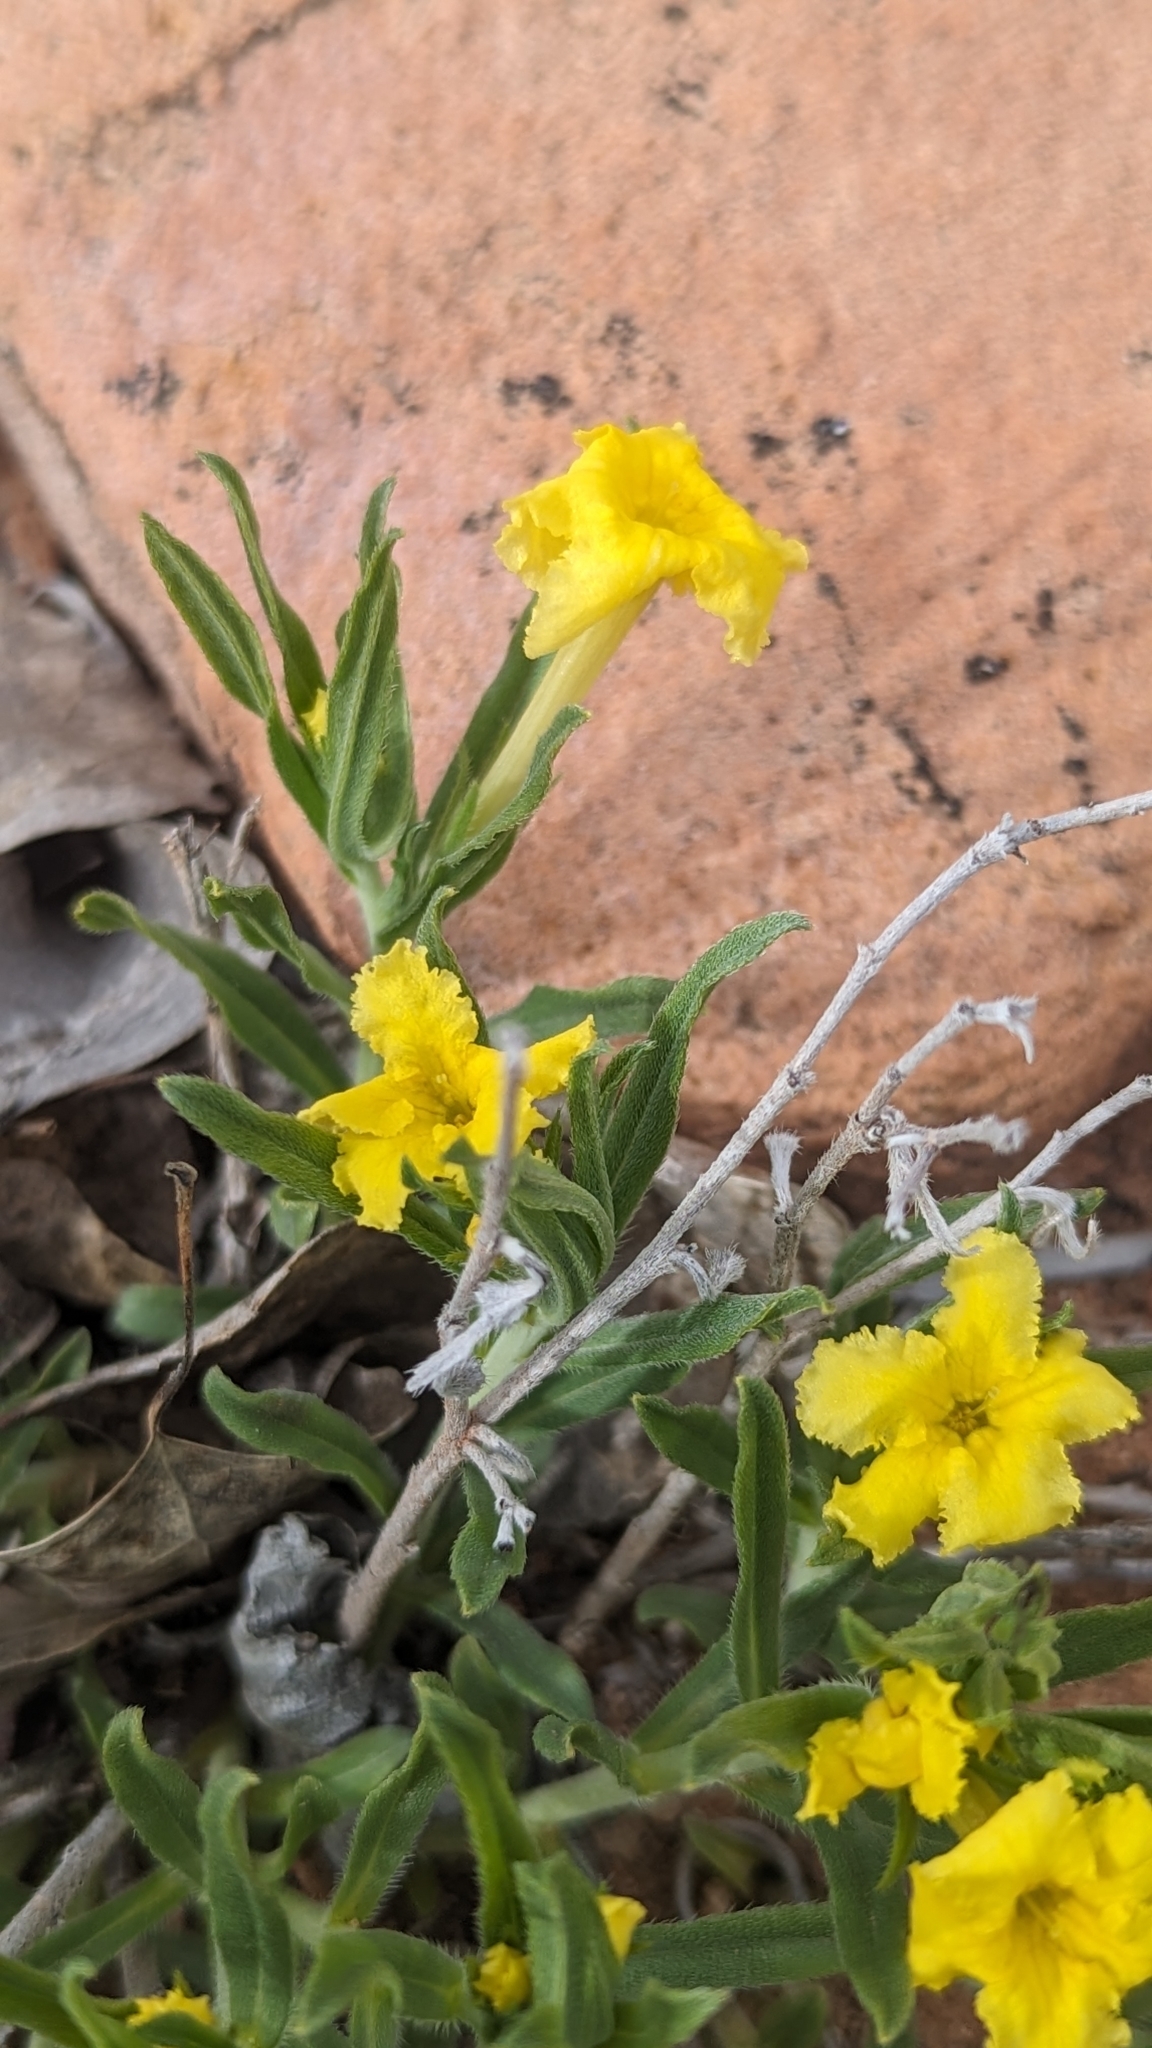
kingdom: Plantae
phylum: Tracheophyta
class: Magnoliopsida
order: Boraginales
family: Boraginaceae
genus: Lithospermum
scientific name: Lithospermum incisum
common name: Fringed gromwell
